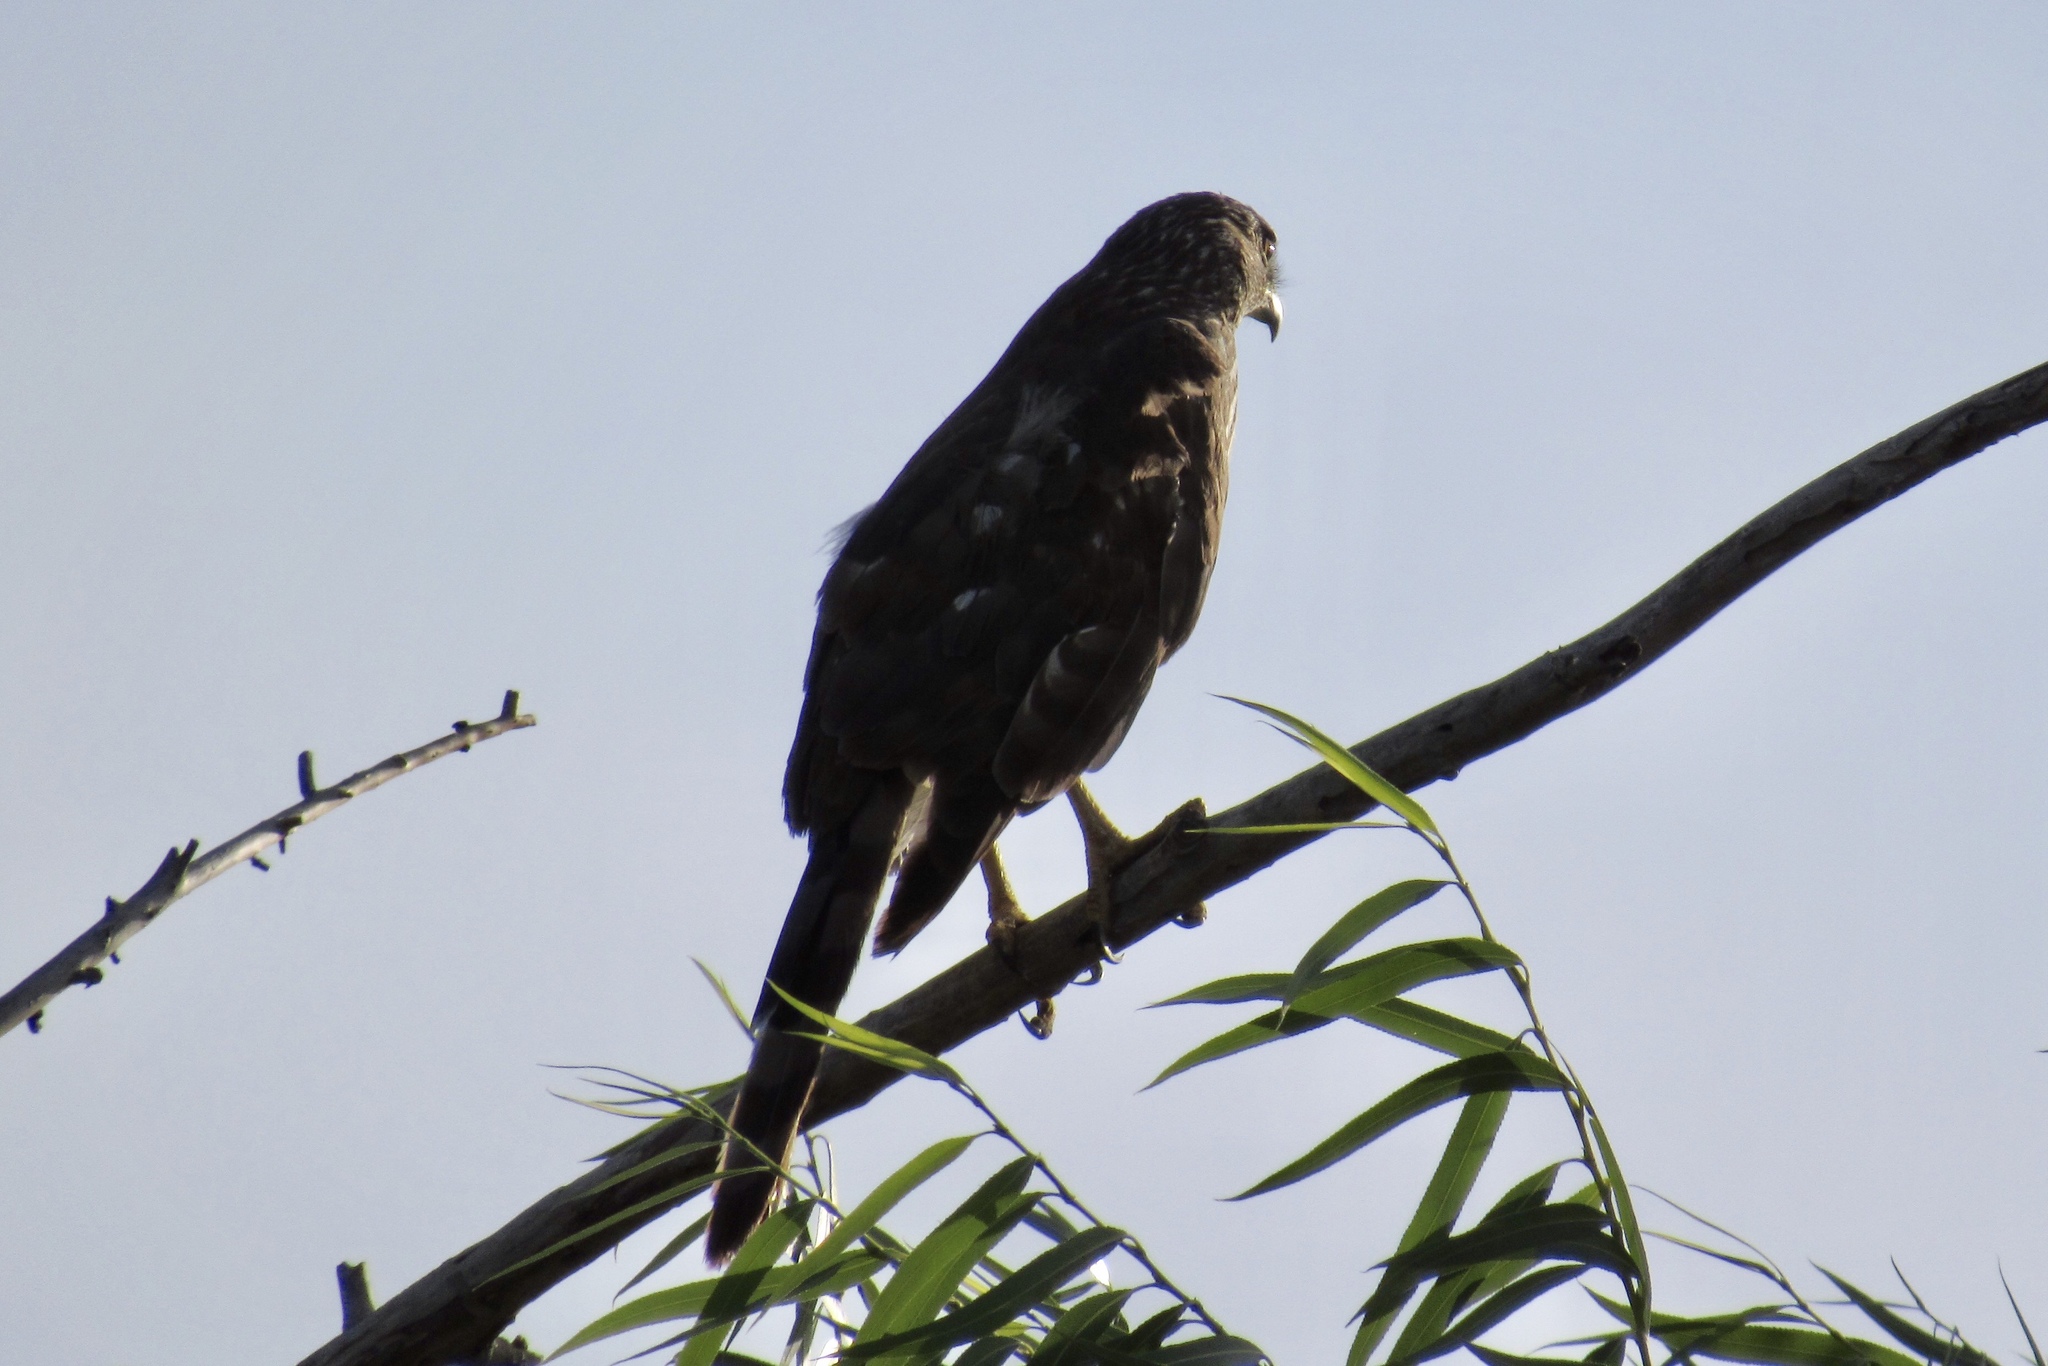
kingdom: Animalia
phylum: Chordata
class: Aves
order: Accipitriformes
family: Accipitridae
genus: Accipiter
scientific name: Accipiter cooperii
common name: Cooper's hawk
